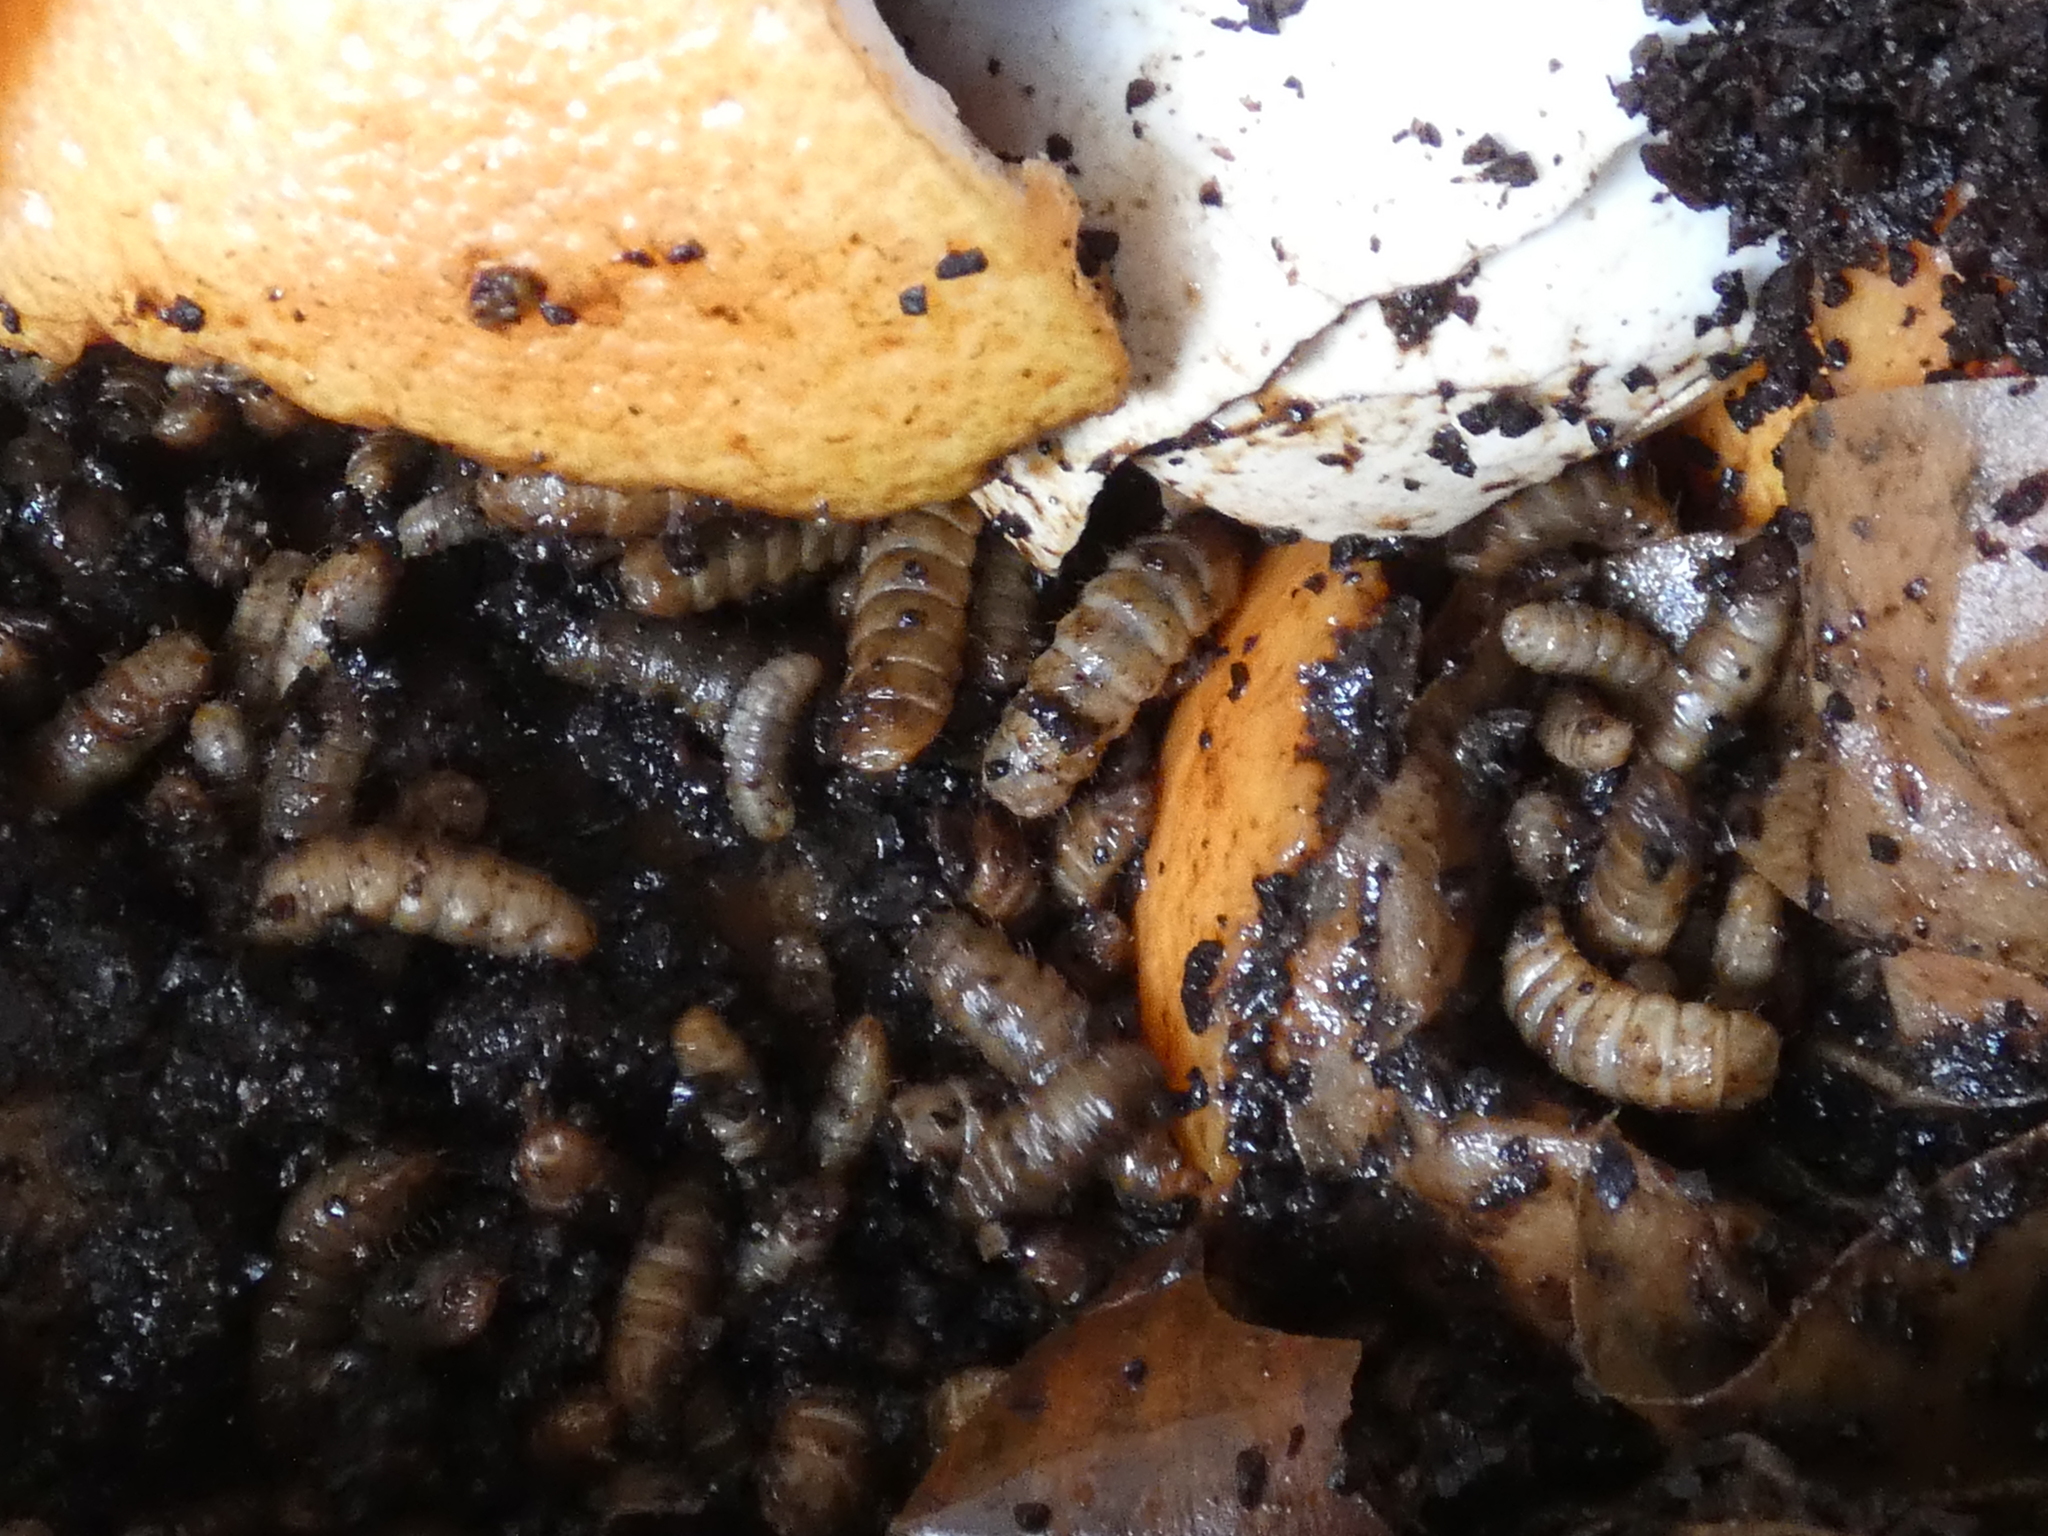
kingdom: Animalia
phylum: Arthropoda
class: Insecta
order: Diptera
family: Stratiomyidae
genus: Hermetia
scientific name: Hermetia illucens
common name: Black soldier fly
